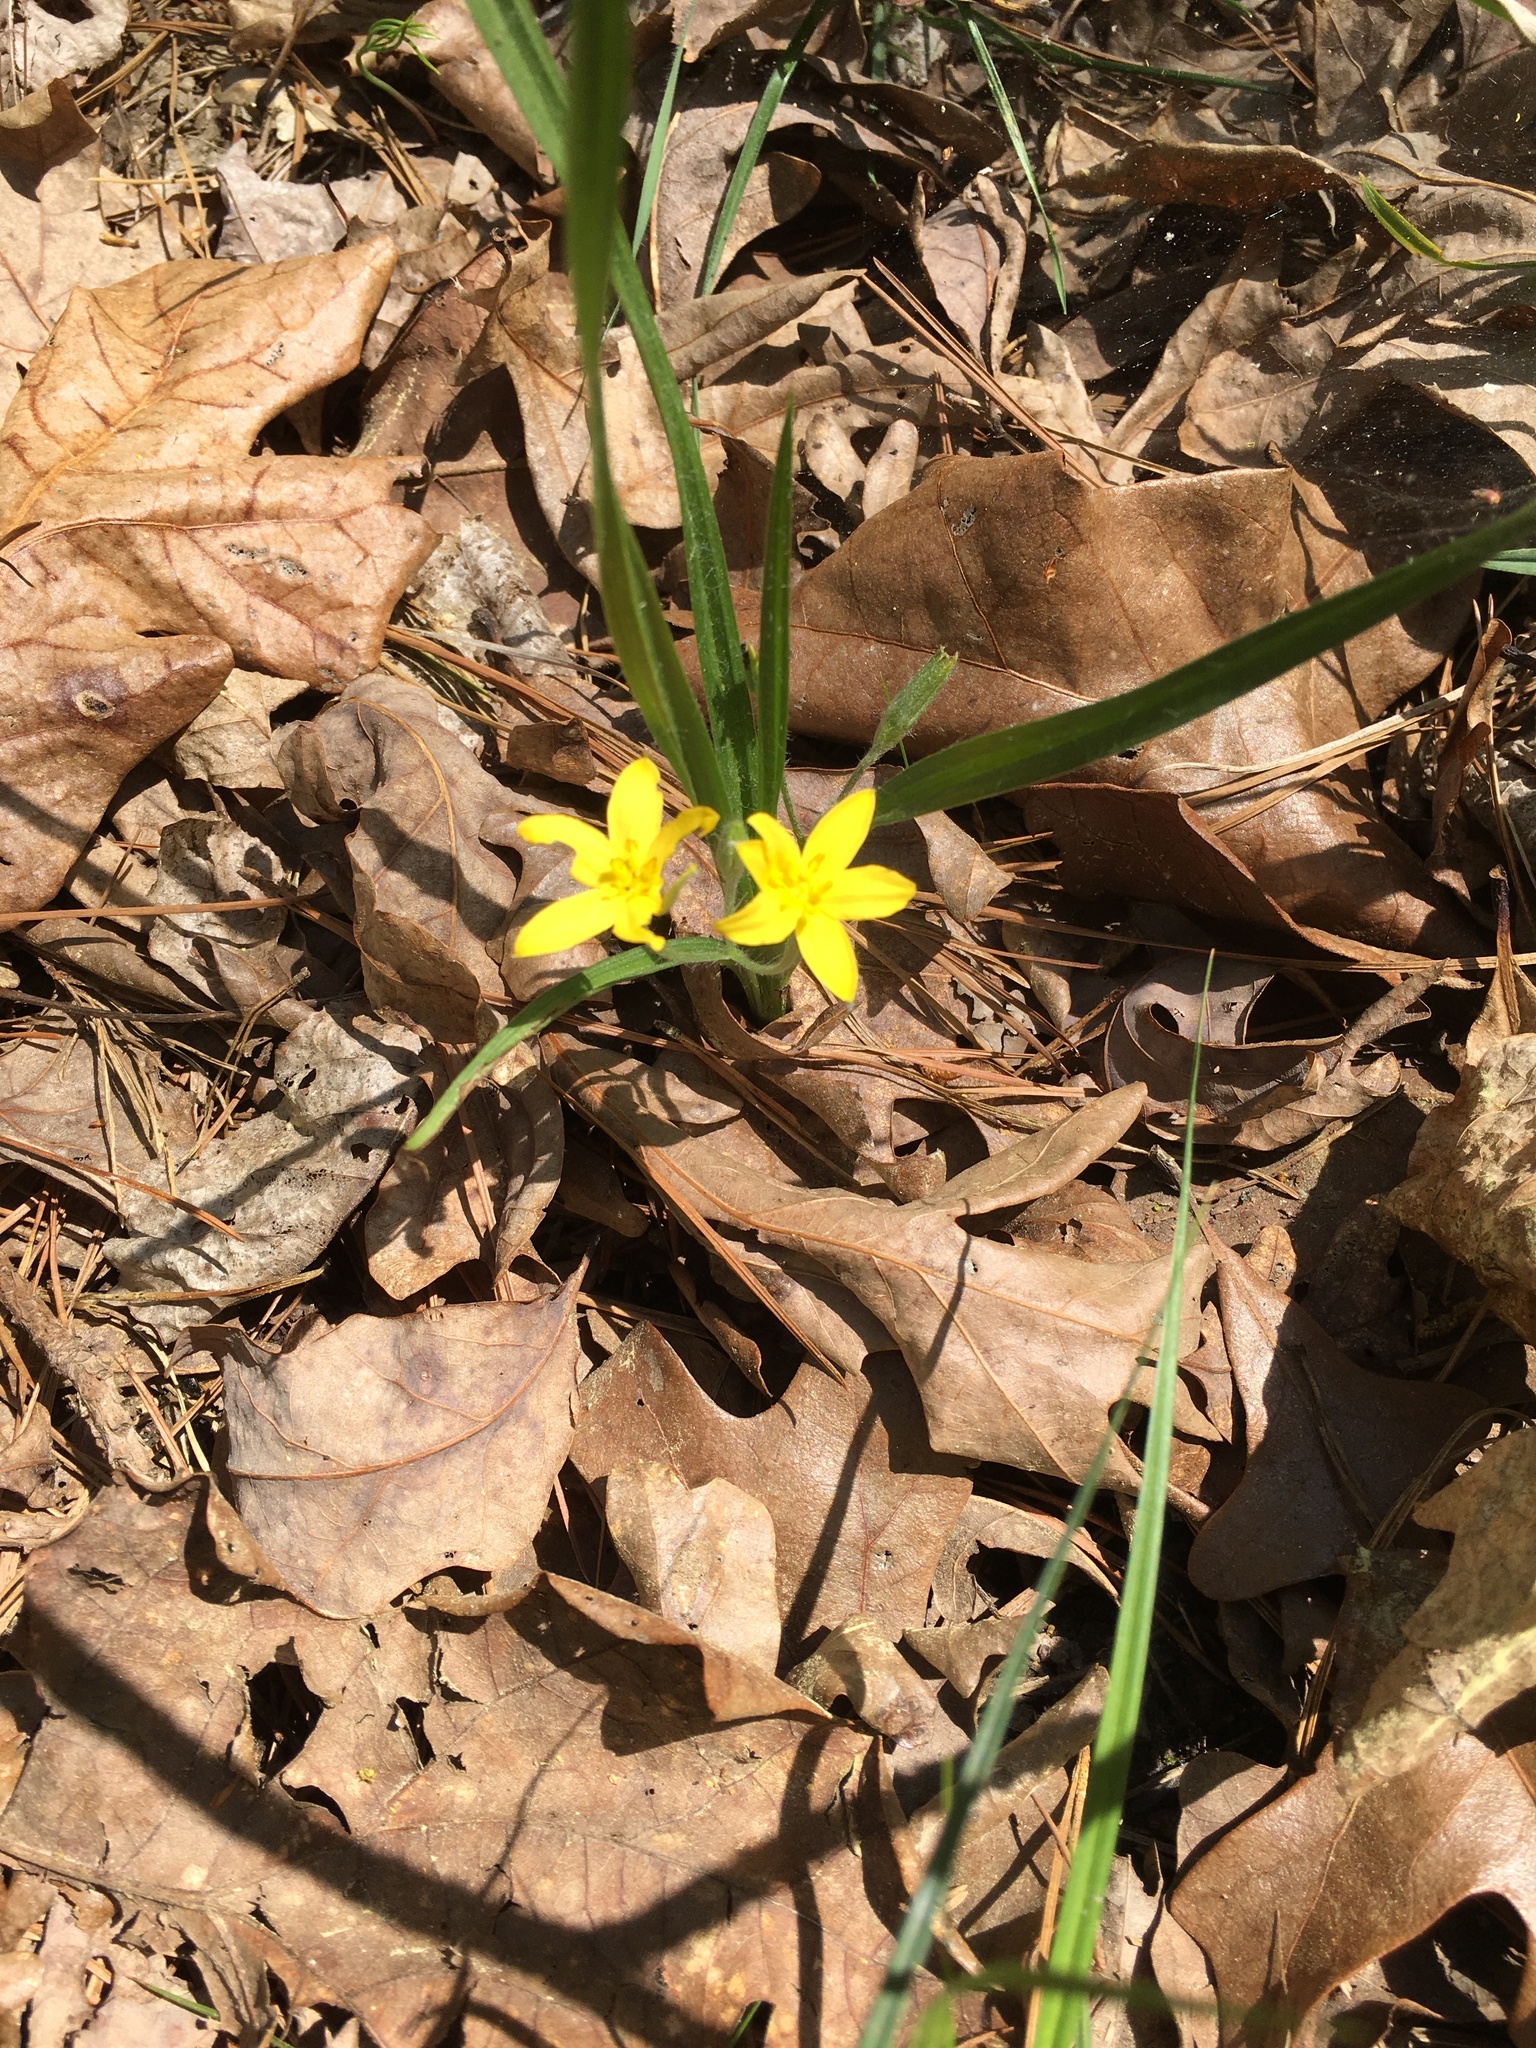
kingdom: Plantae
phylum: Tracheophyta
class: Liliopsida
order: Asparagales
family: Hypoxidaceae
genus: Hypoxis
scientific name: Hypoxis hirsuta
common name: Common goldstar
